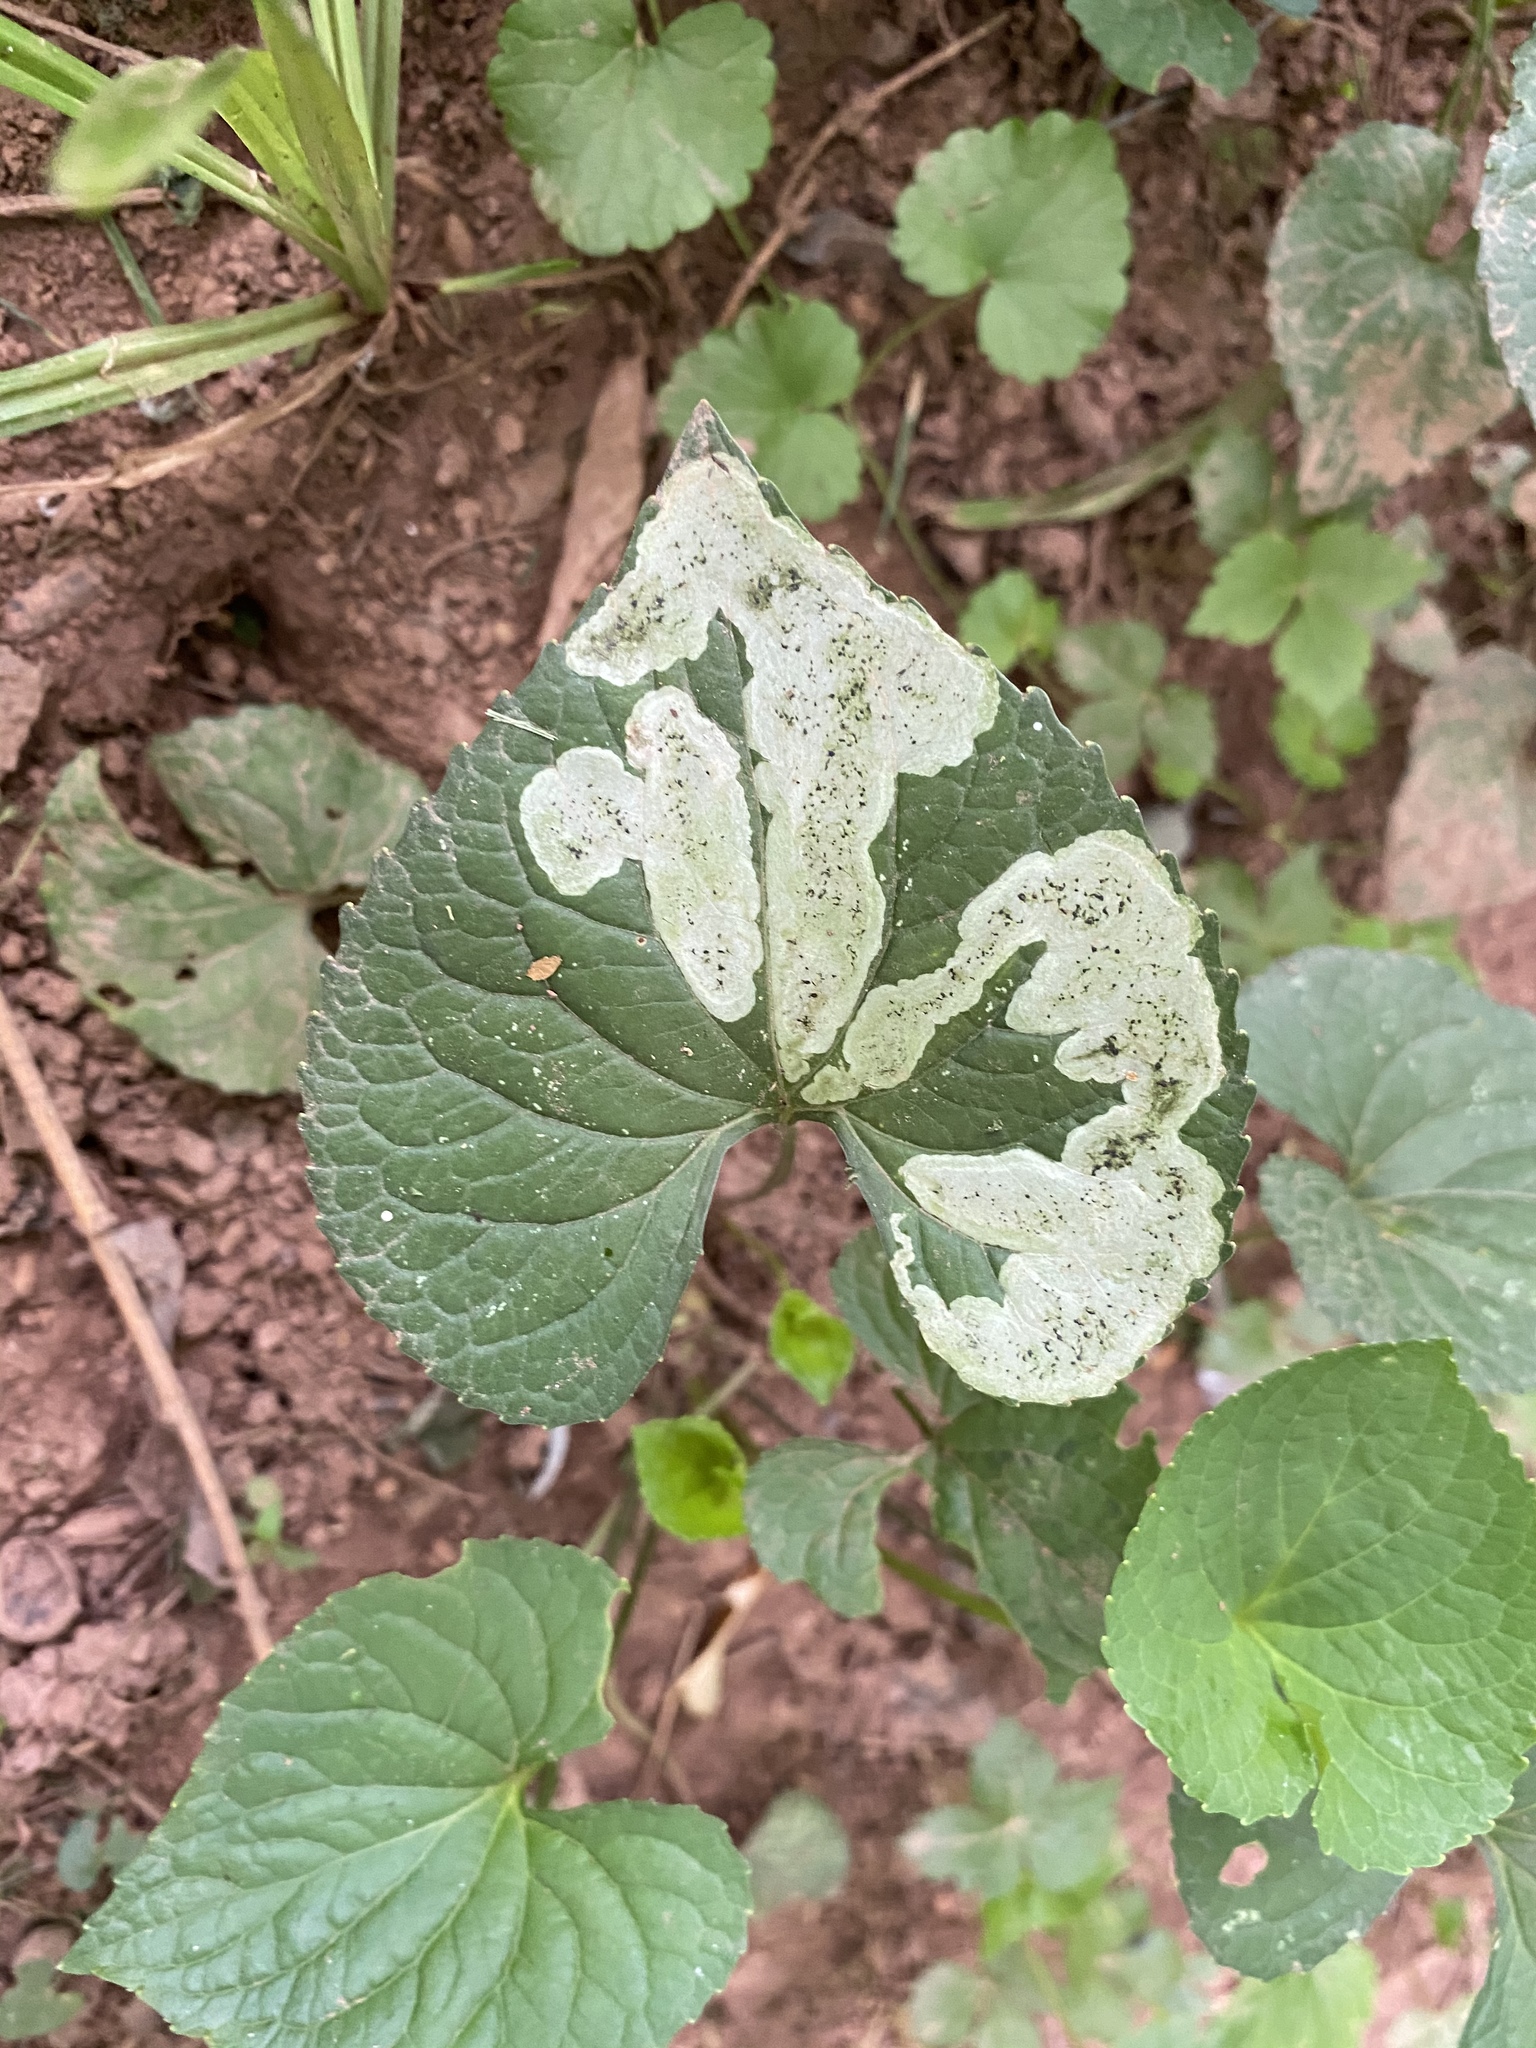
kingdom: Animalia
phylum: Arthropoda
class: Insecta
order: Diptera
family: Agromyzidae
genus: Liriomyza
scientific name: Liriomyza violivora
